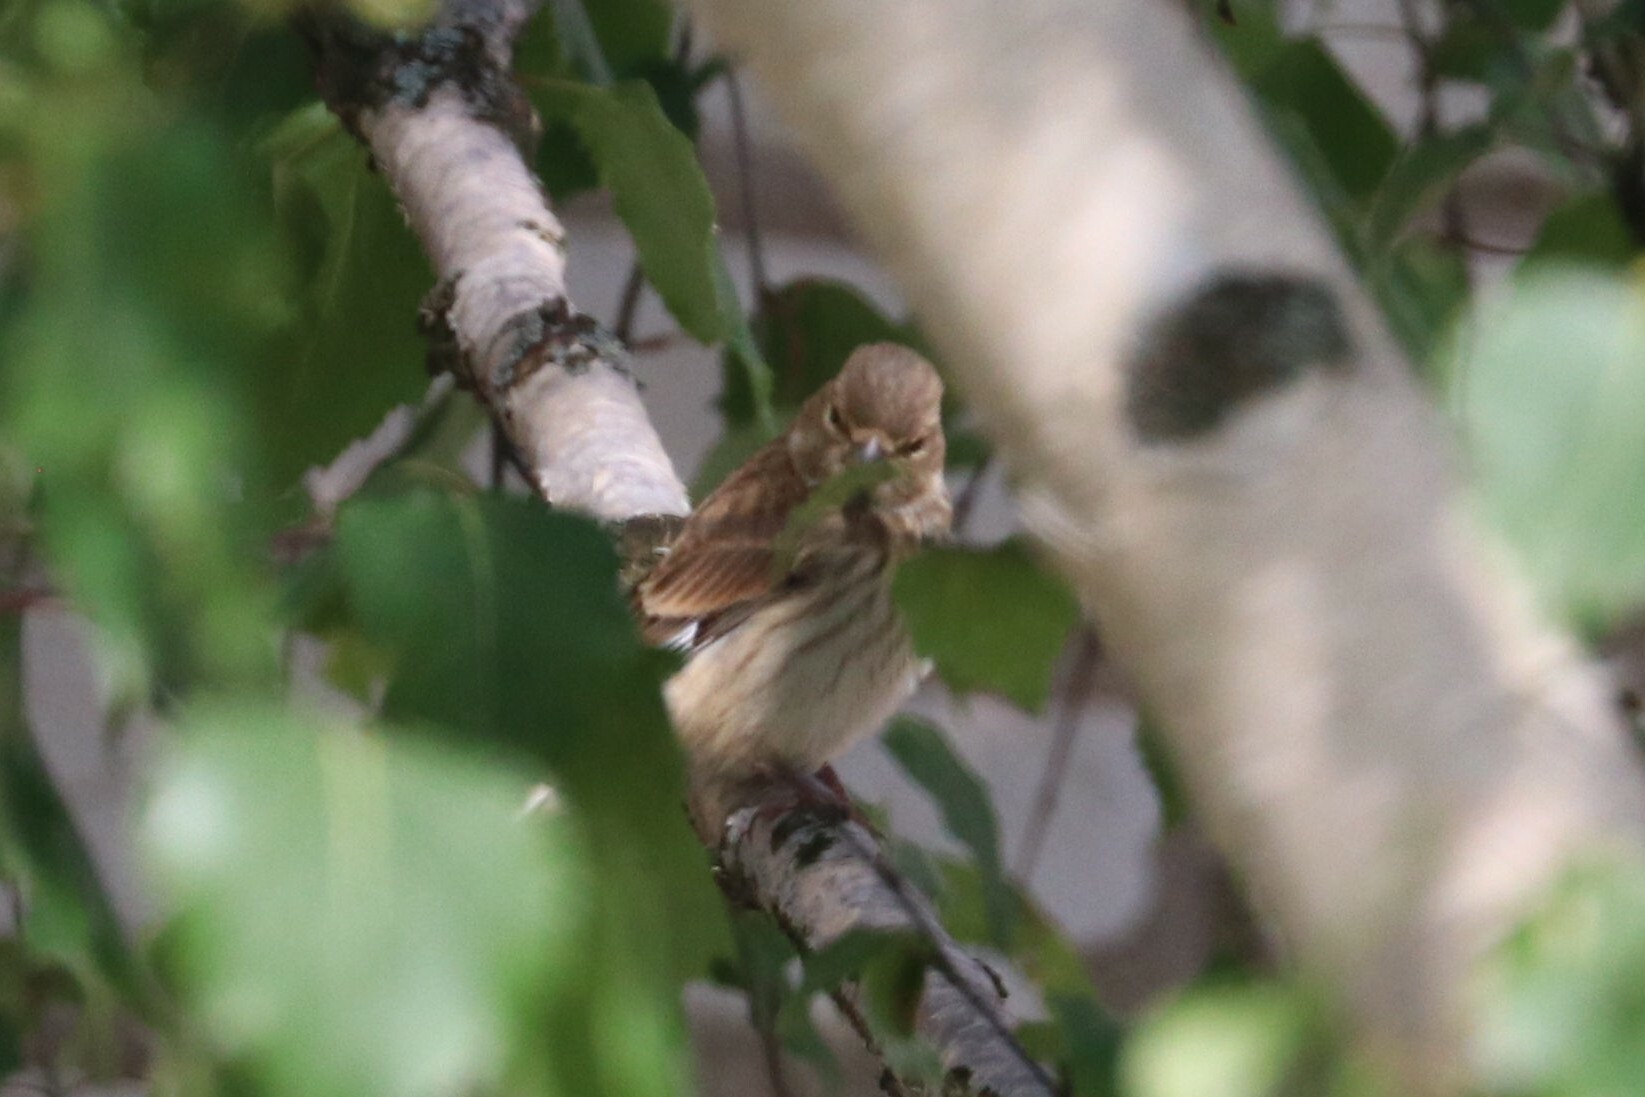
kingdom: Animalia
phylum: Chordata
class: Aves
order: Passeriformes
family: Fringillidae
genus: Linaria
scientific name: Linaria cannabina
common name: Common linnet
